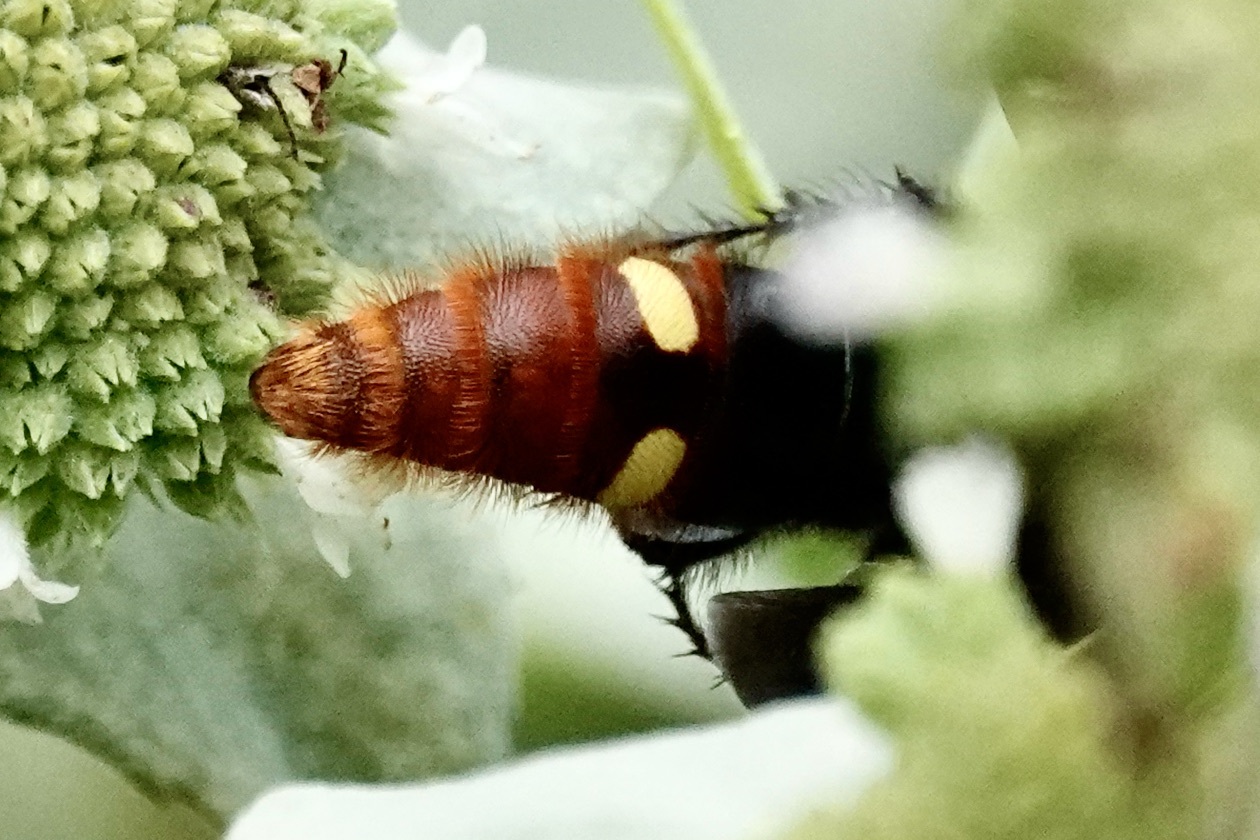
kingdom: Animalia
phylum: Arthropoda
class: Insecta
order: Hymenoptera
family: Scoliidae
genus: Scolia
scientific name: Scolia dubia
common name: Blue-winged scoliid wasp
